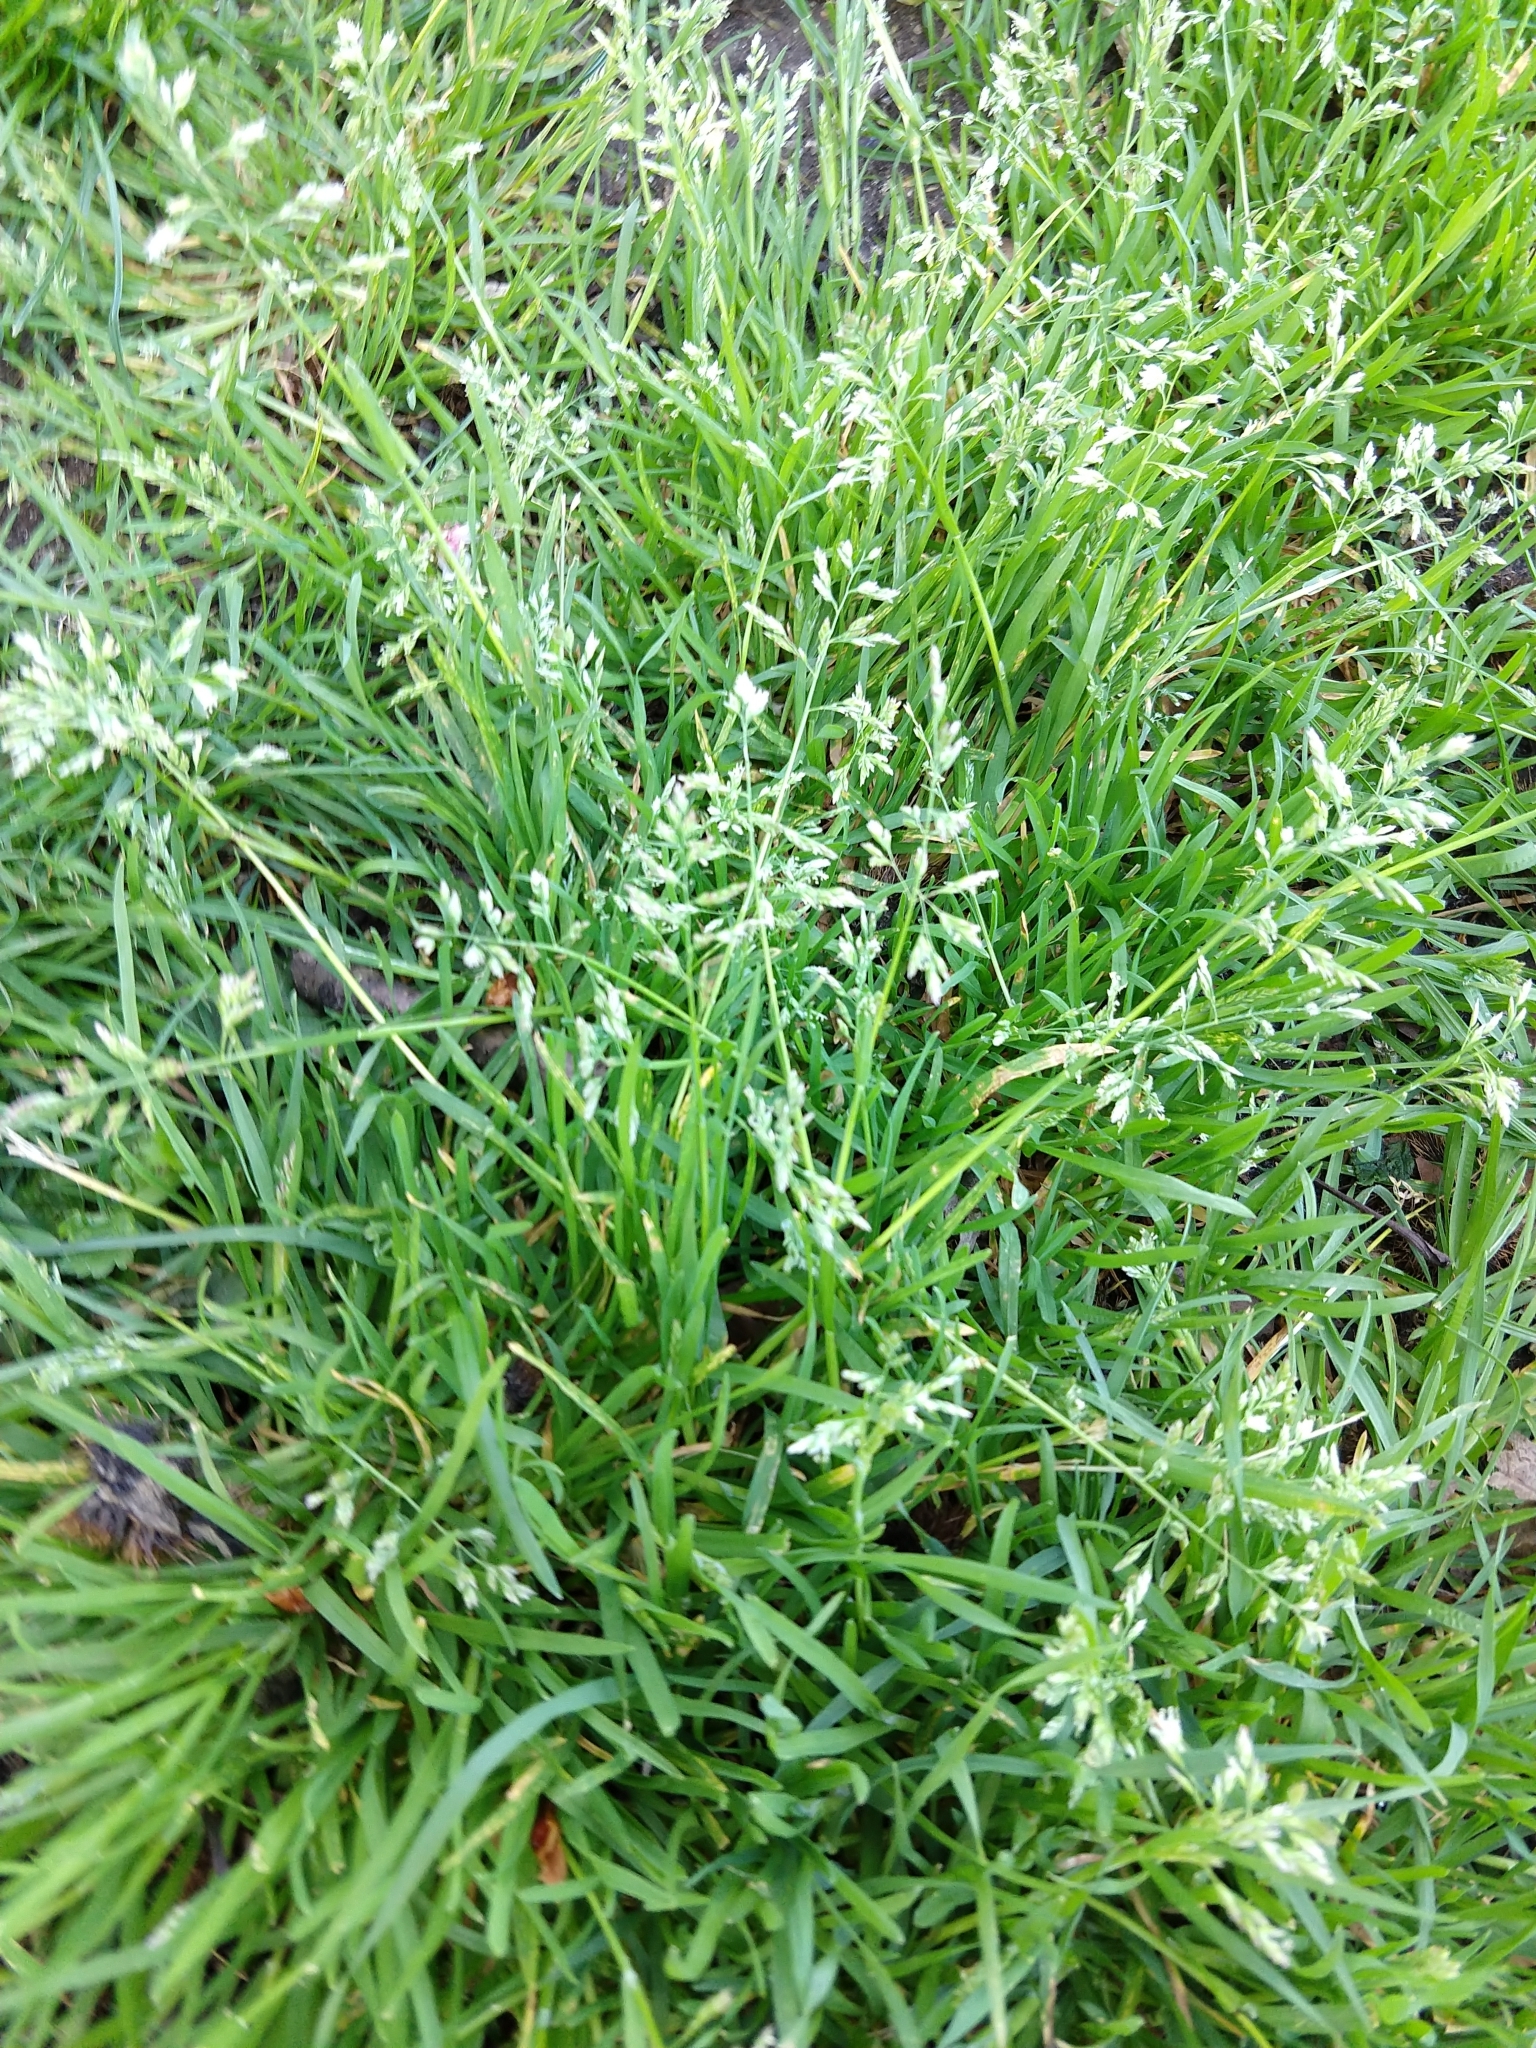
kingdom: Plantae
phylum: Tracheophyta
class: Liliopsida
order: Poales
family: Poaceae
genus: Poa
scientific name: Poa annua
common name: Annual bluegrass
